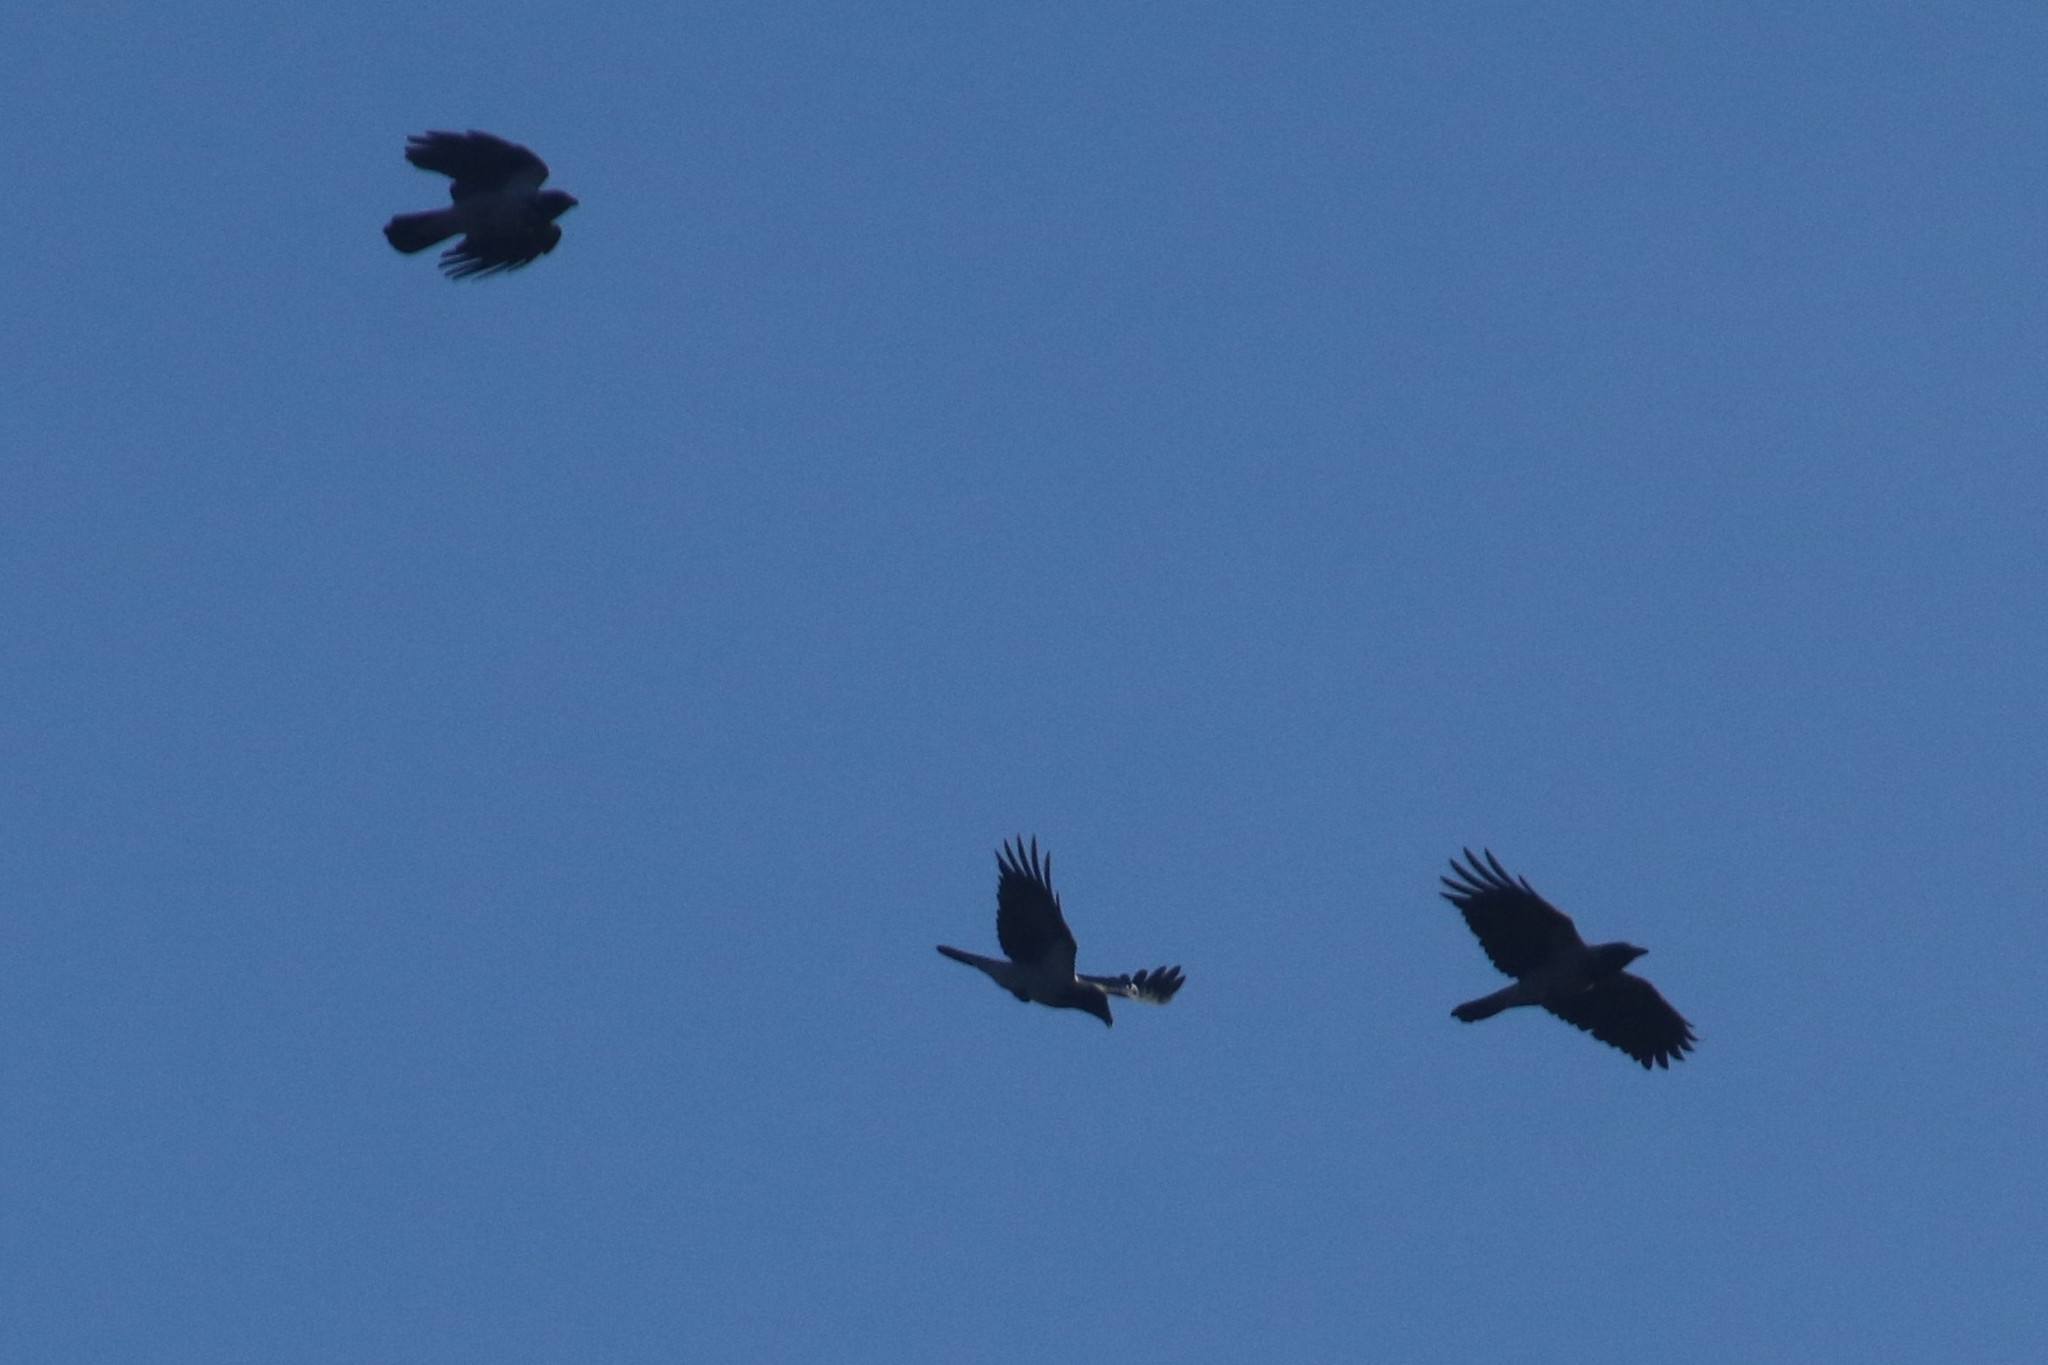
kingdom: Animalia
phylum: Chordata
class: Aves
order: Passeriformes
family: Corvidae
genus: Corvus
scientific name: Corvus cornix
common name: Hooded crow
